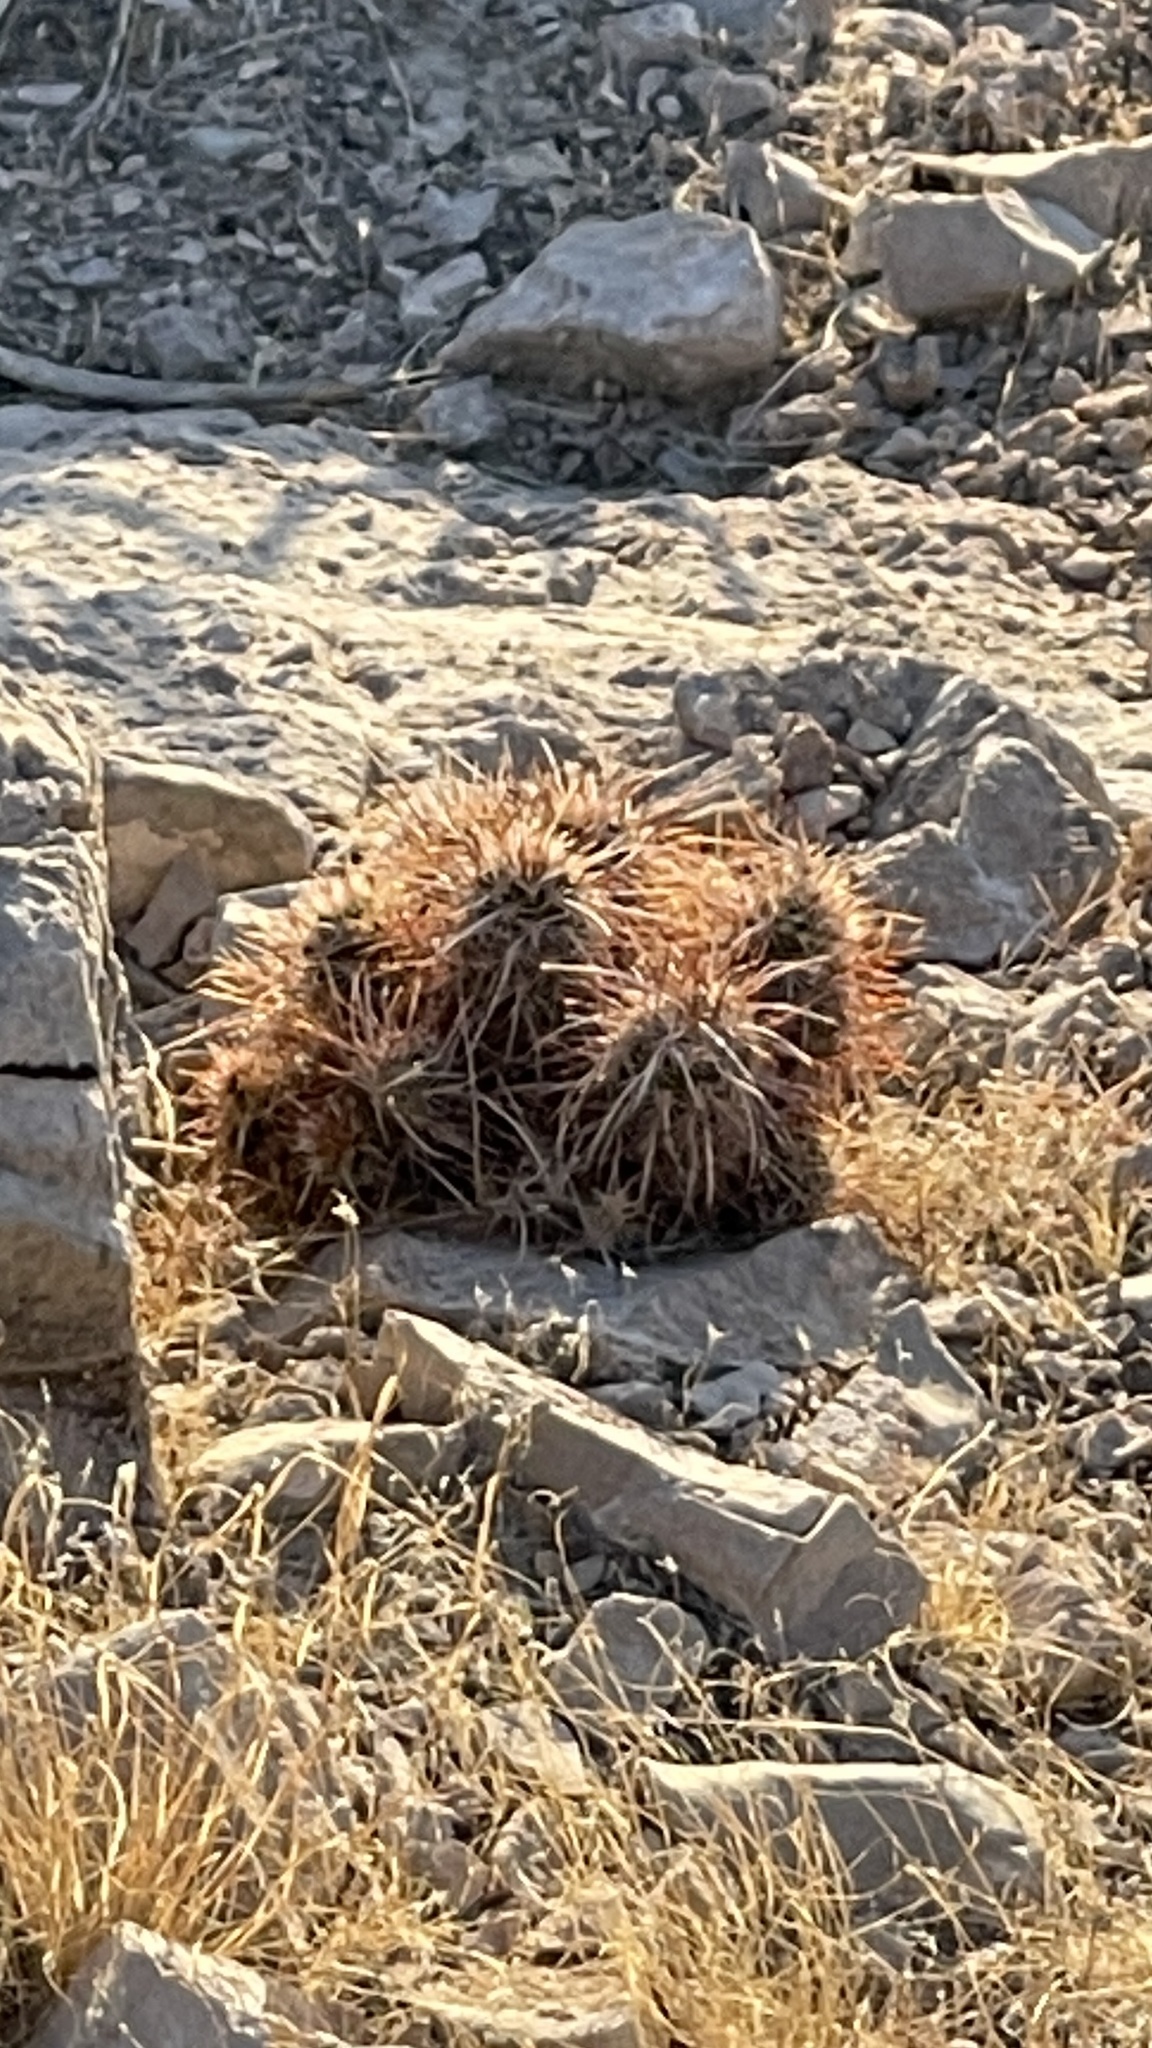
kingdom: Plantae
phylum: Tracheophyta
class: Magnoliopsida
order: Caryophyllales
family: Cactaceae
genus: Echinocereus
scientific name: Echinocereus engelmannii
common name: Engelmann's hedgehog cactus
